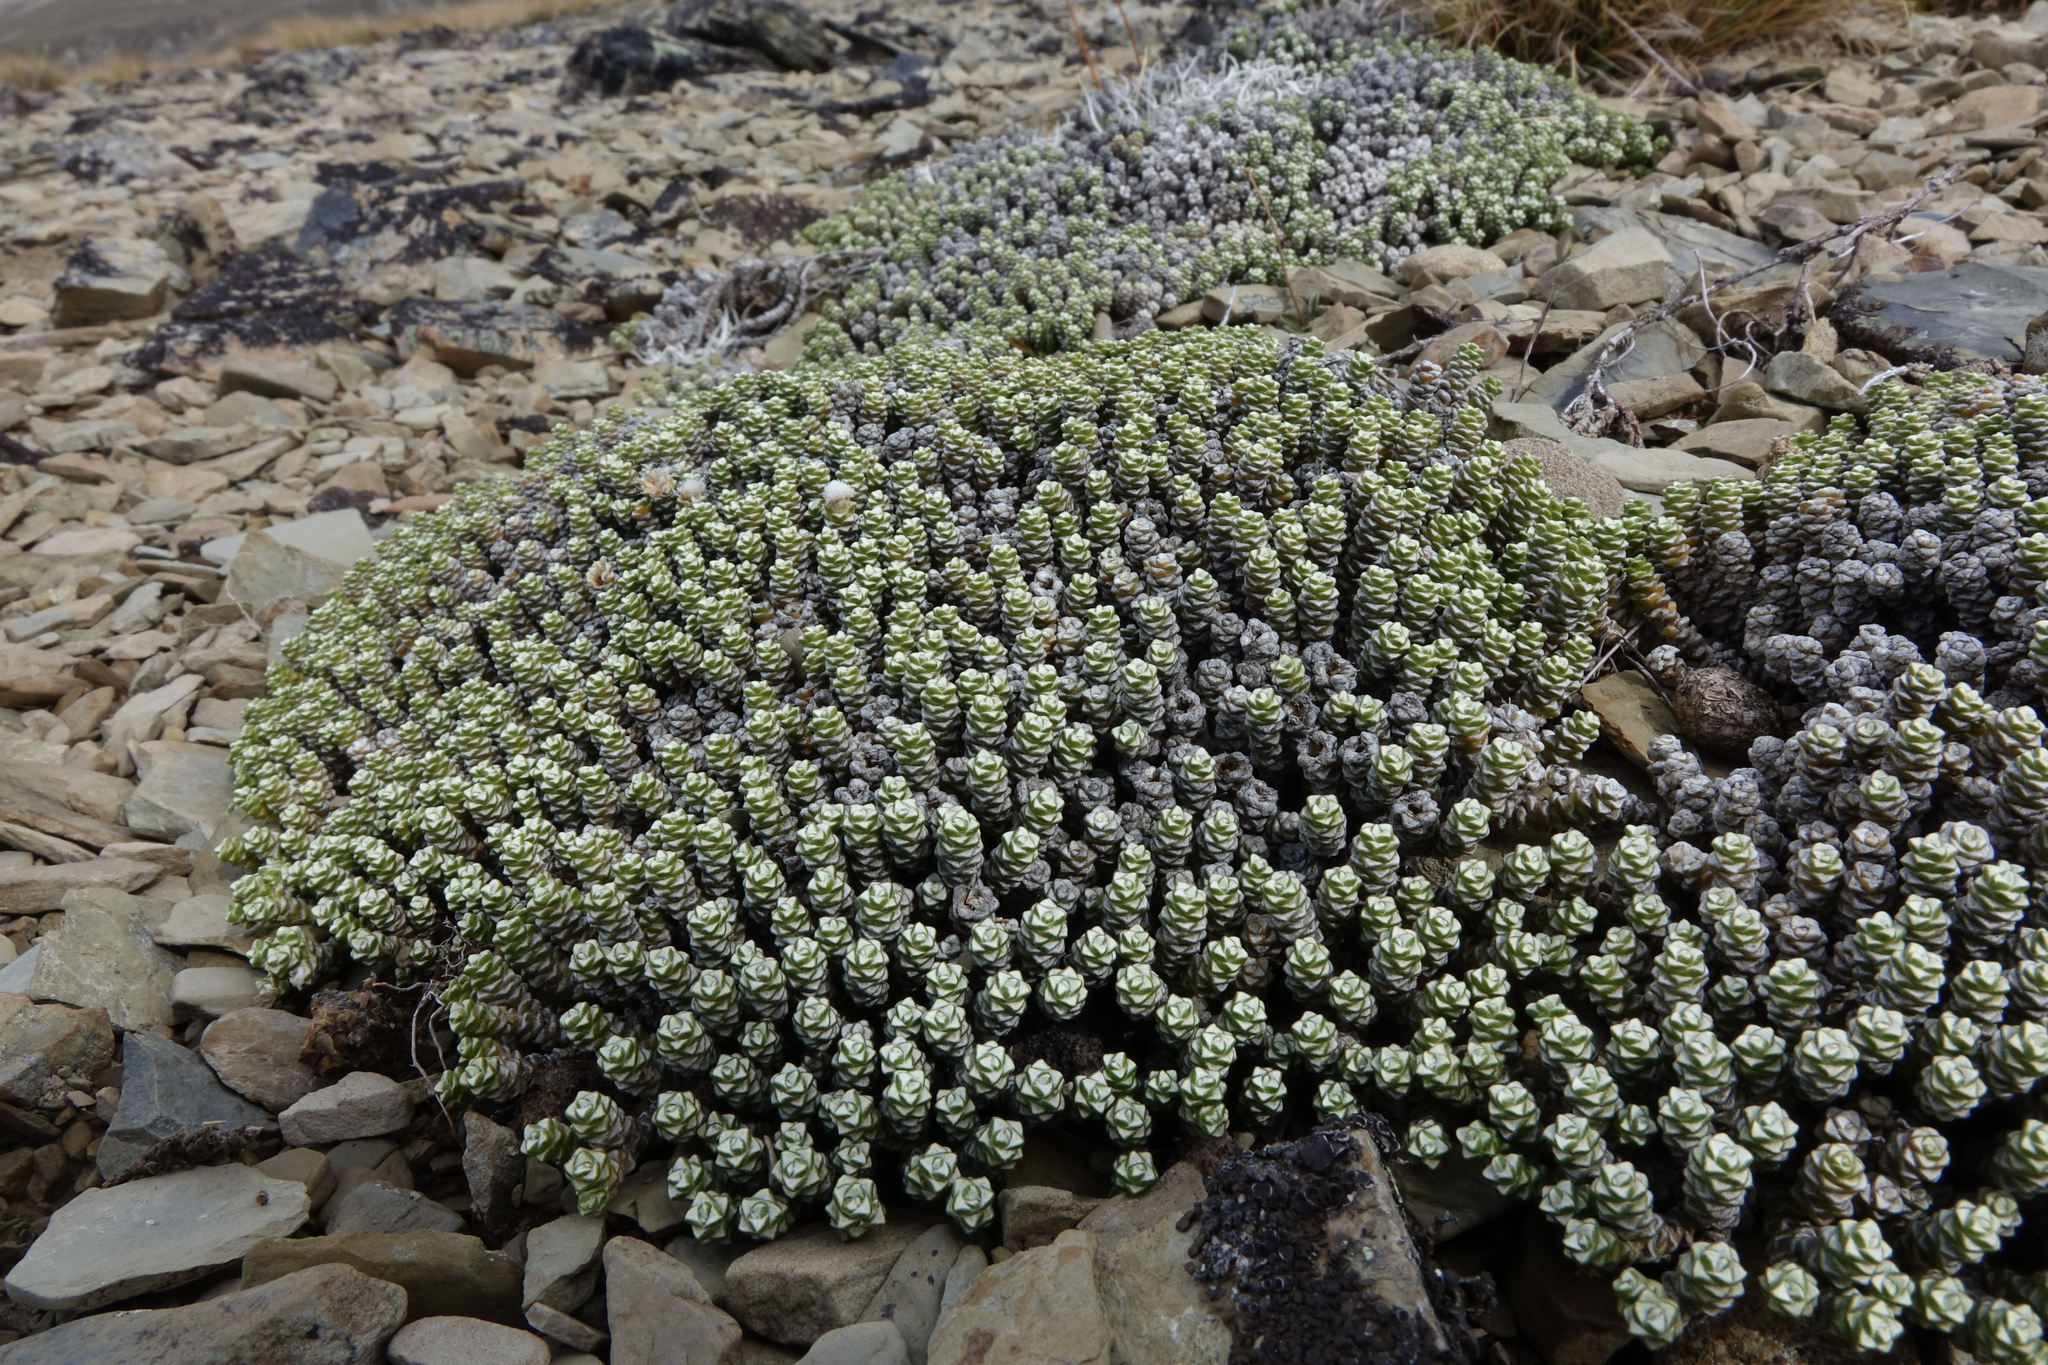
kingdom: Plantae
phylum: Tracheophyta
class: Magnoliopsida
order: Asterales
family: Asteraceae
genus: Raoulia
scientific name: Raoulia petriensis
